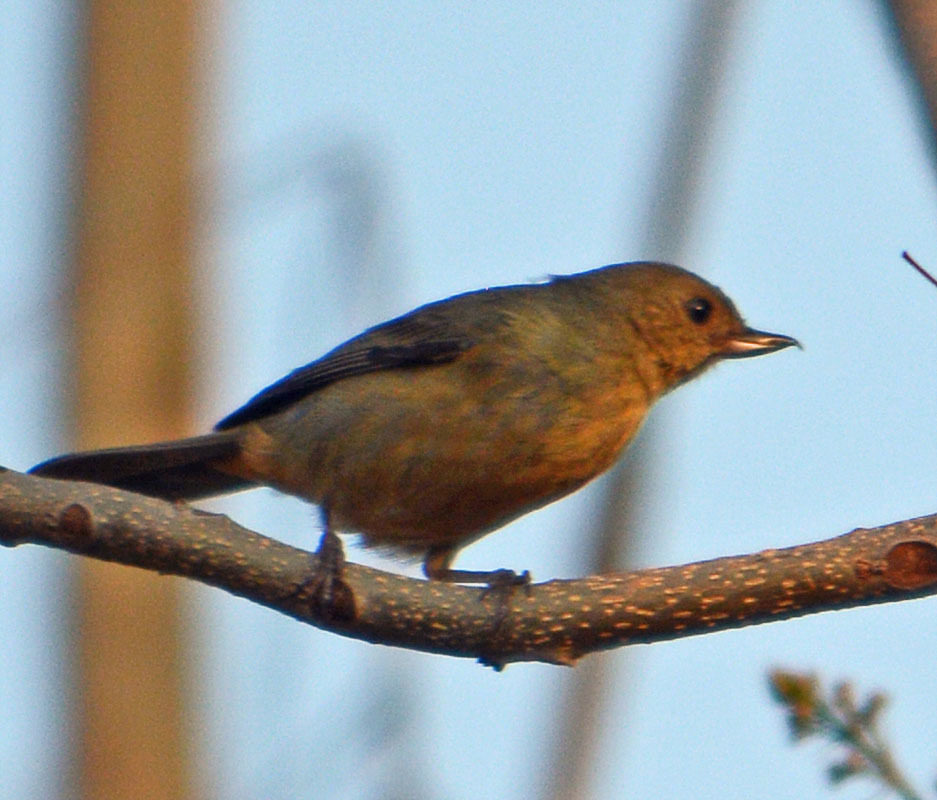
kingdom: Animalia
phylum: Chordata
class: Aves
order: Passeriformes
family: Thraupidae
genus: Diglossa
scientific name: Diglossa baritula
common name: Cinnamon-bellied flowerpiercer
